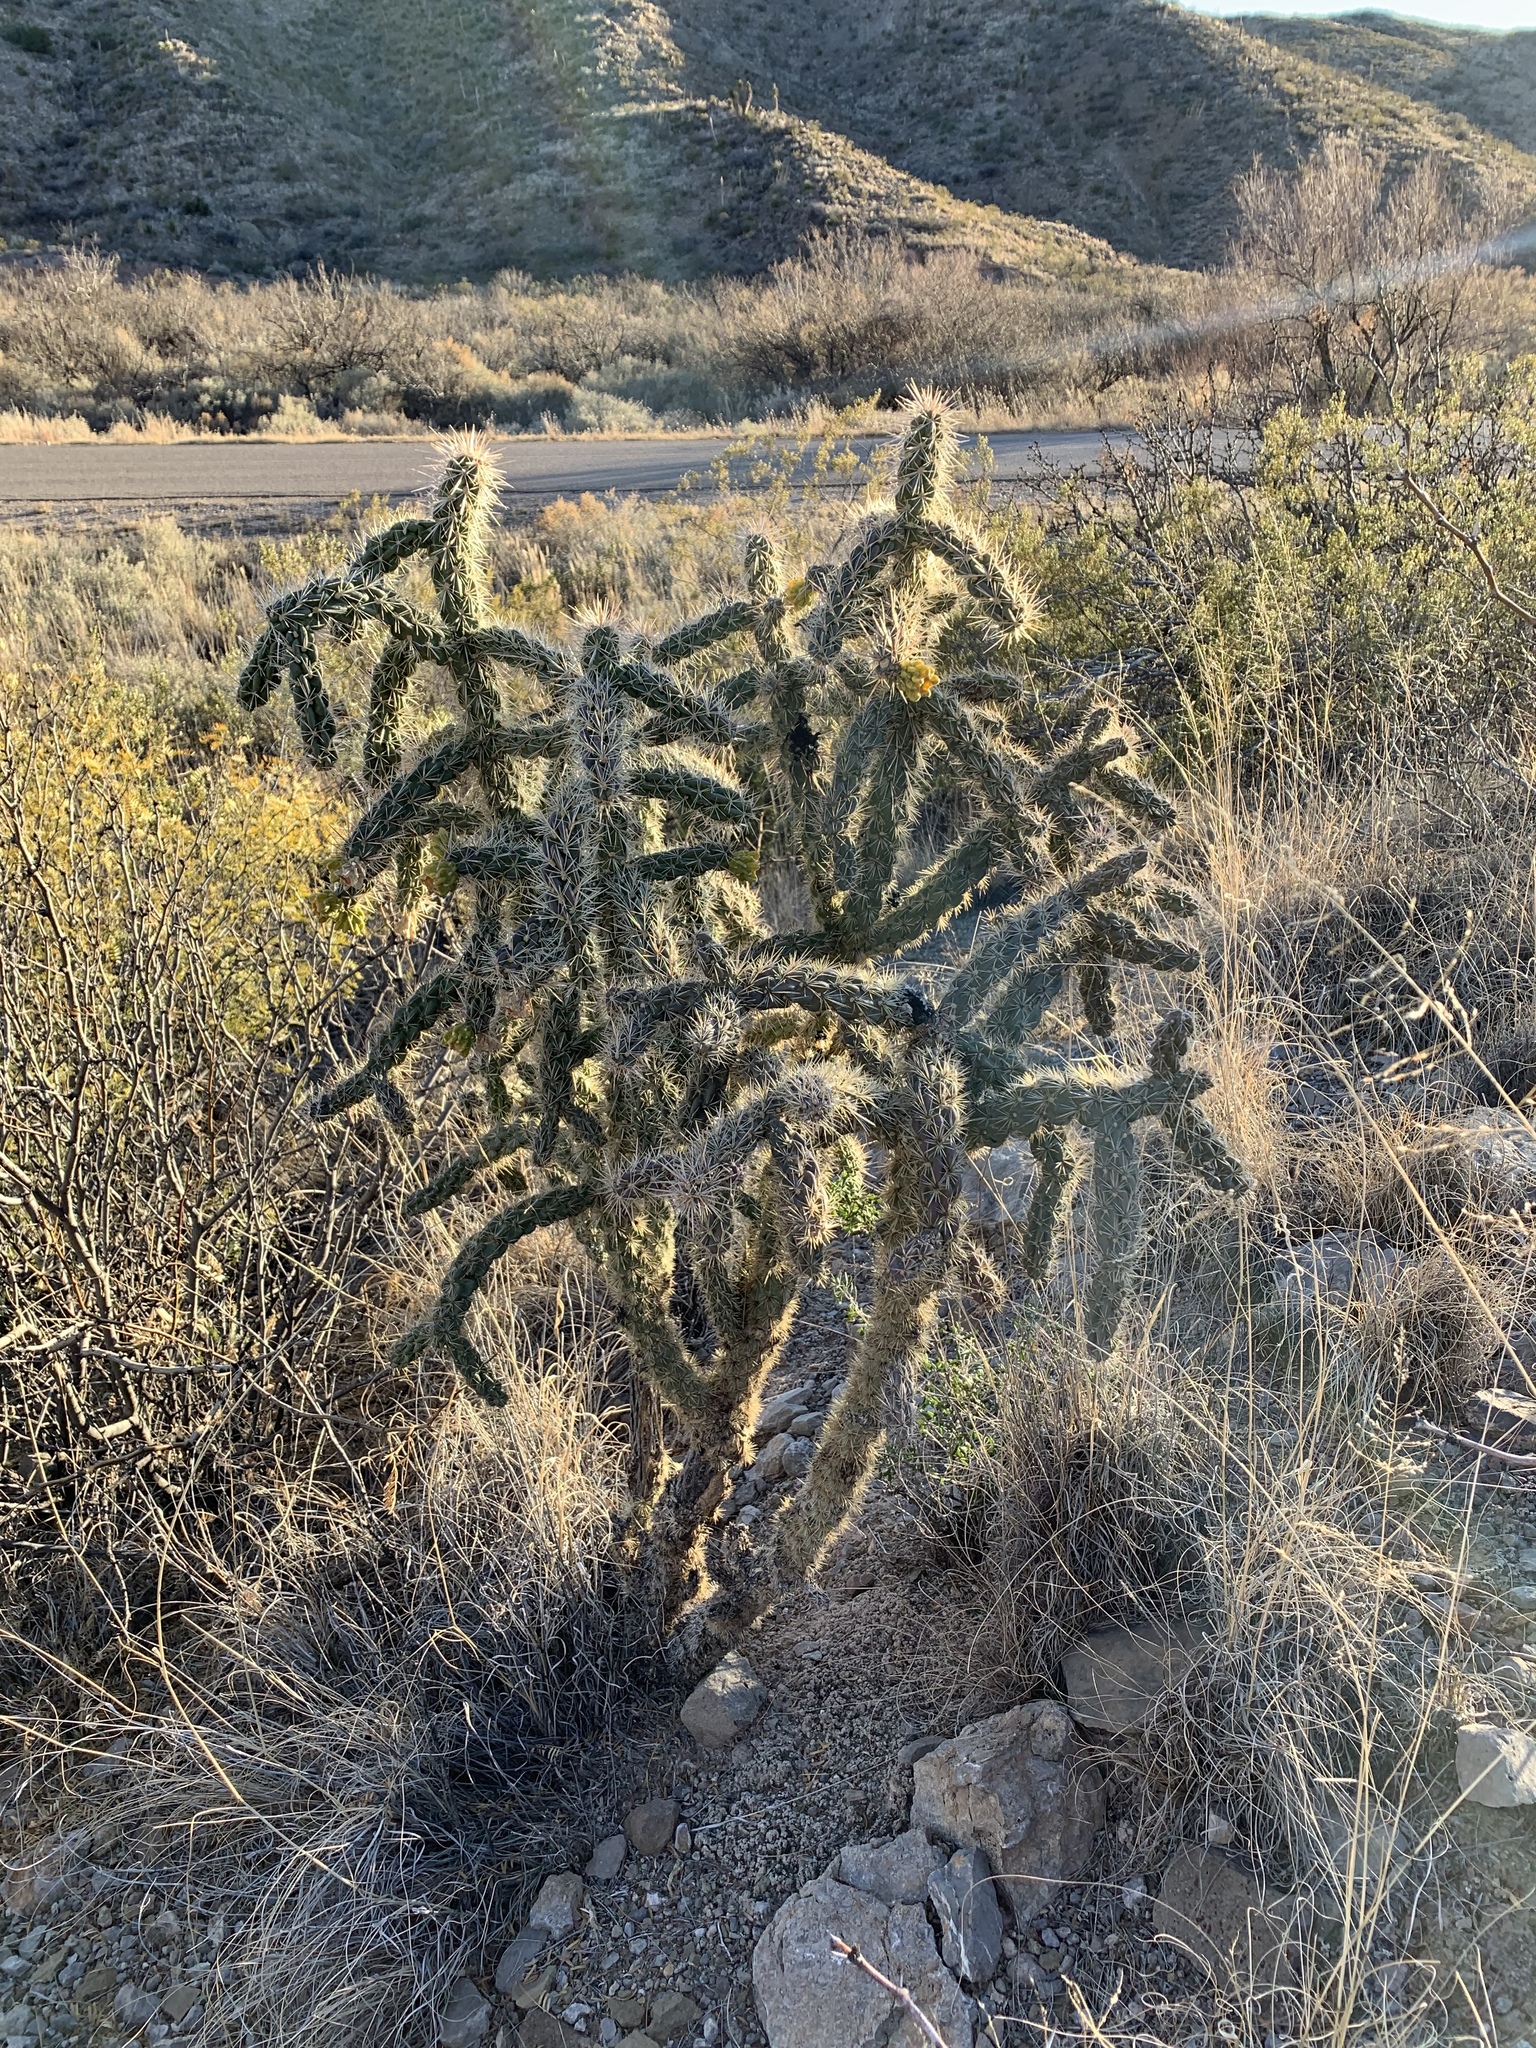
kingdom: Plantae
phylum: Tracheophyta
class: Magnoliopsida
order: Caryophyllales
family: Cactaceae
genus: Cylindropuntia
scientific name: Cylindropuntia imbricata
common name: Candelabrum cactus
